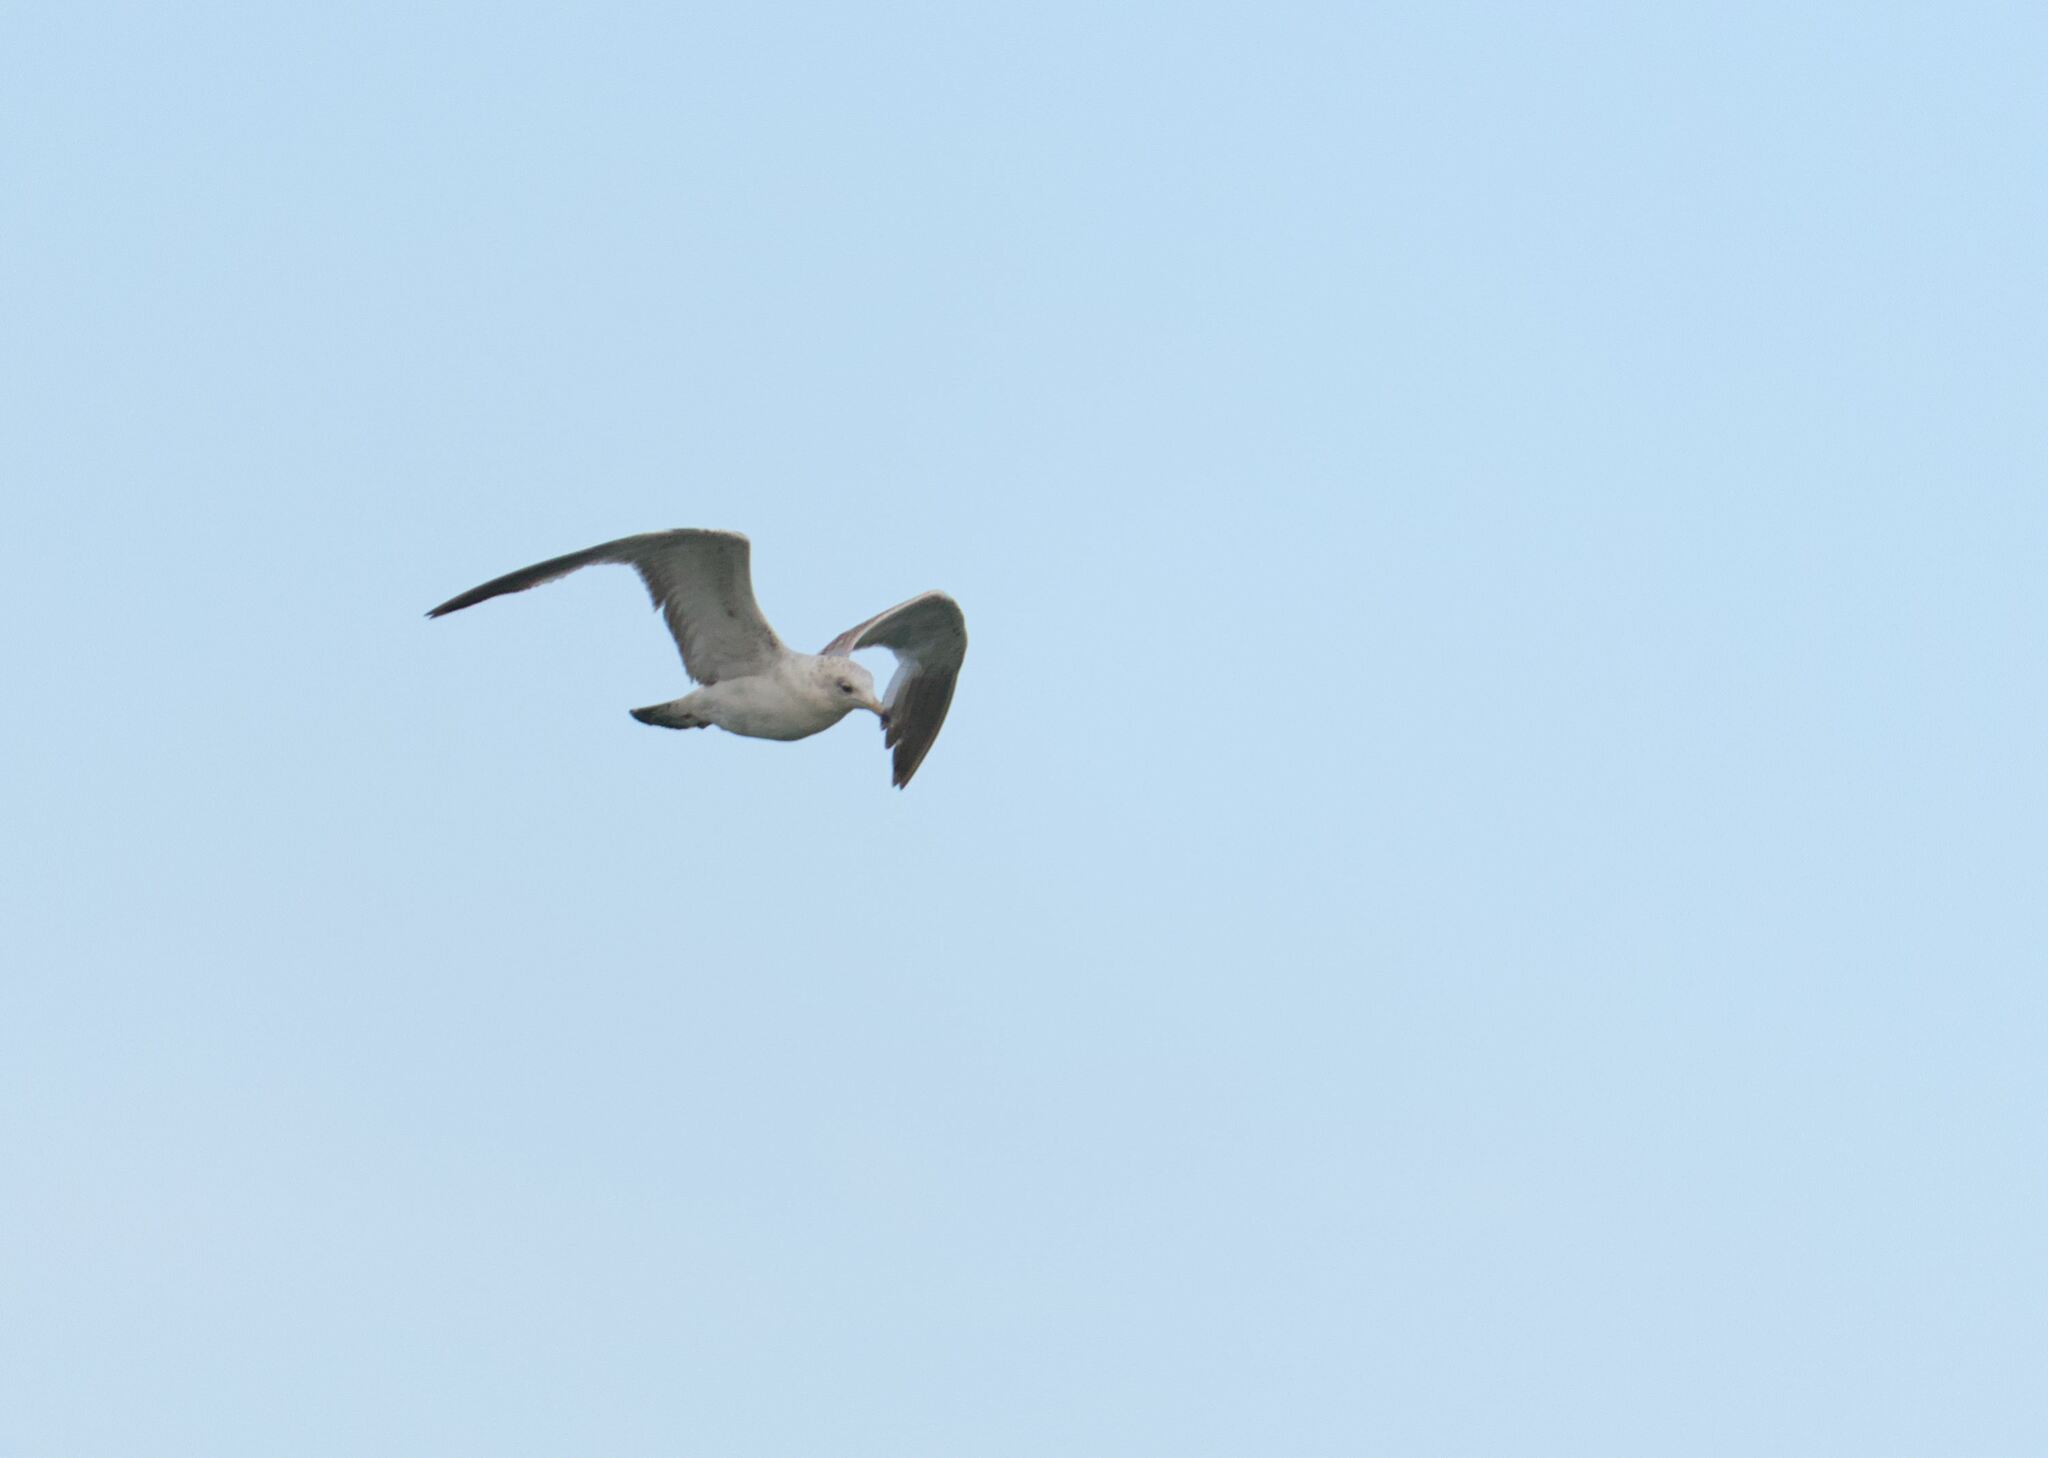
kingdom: Animalia
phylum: Chordata
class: Aves
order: Charadriiformes
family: Laridae
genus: Larus
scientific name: Larus delawarensis
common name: Ring-billed gull
